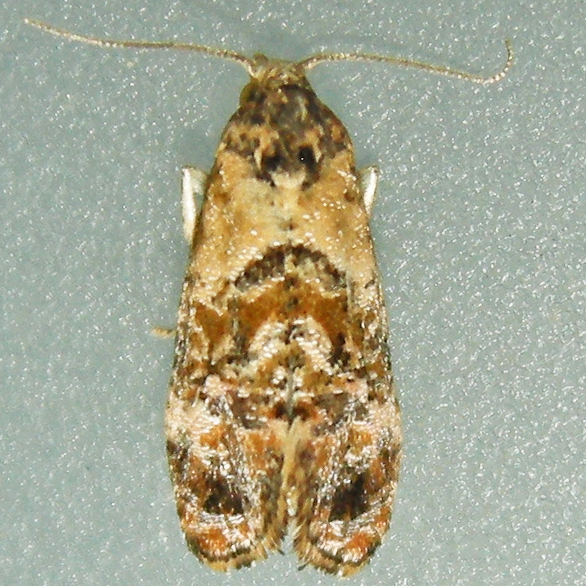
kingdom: Animalia
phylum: Arthropoda
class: Insecta
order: Lepidoptera
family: Tortricidae
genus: Cochylis
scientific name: Cochylis Cochylichroa hoffmanana
